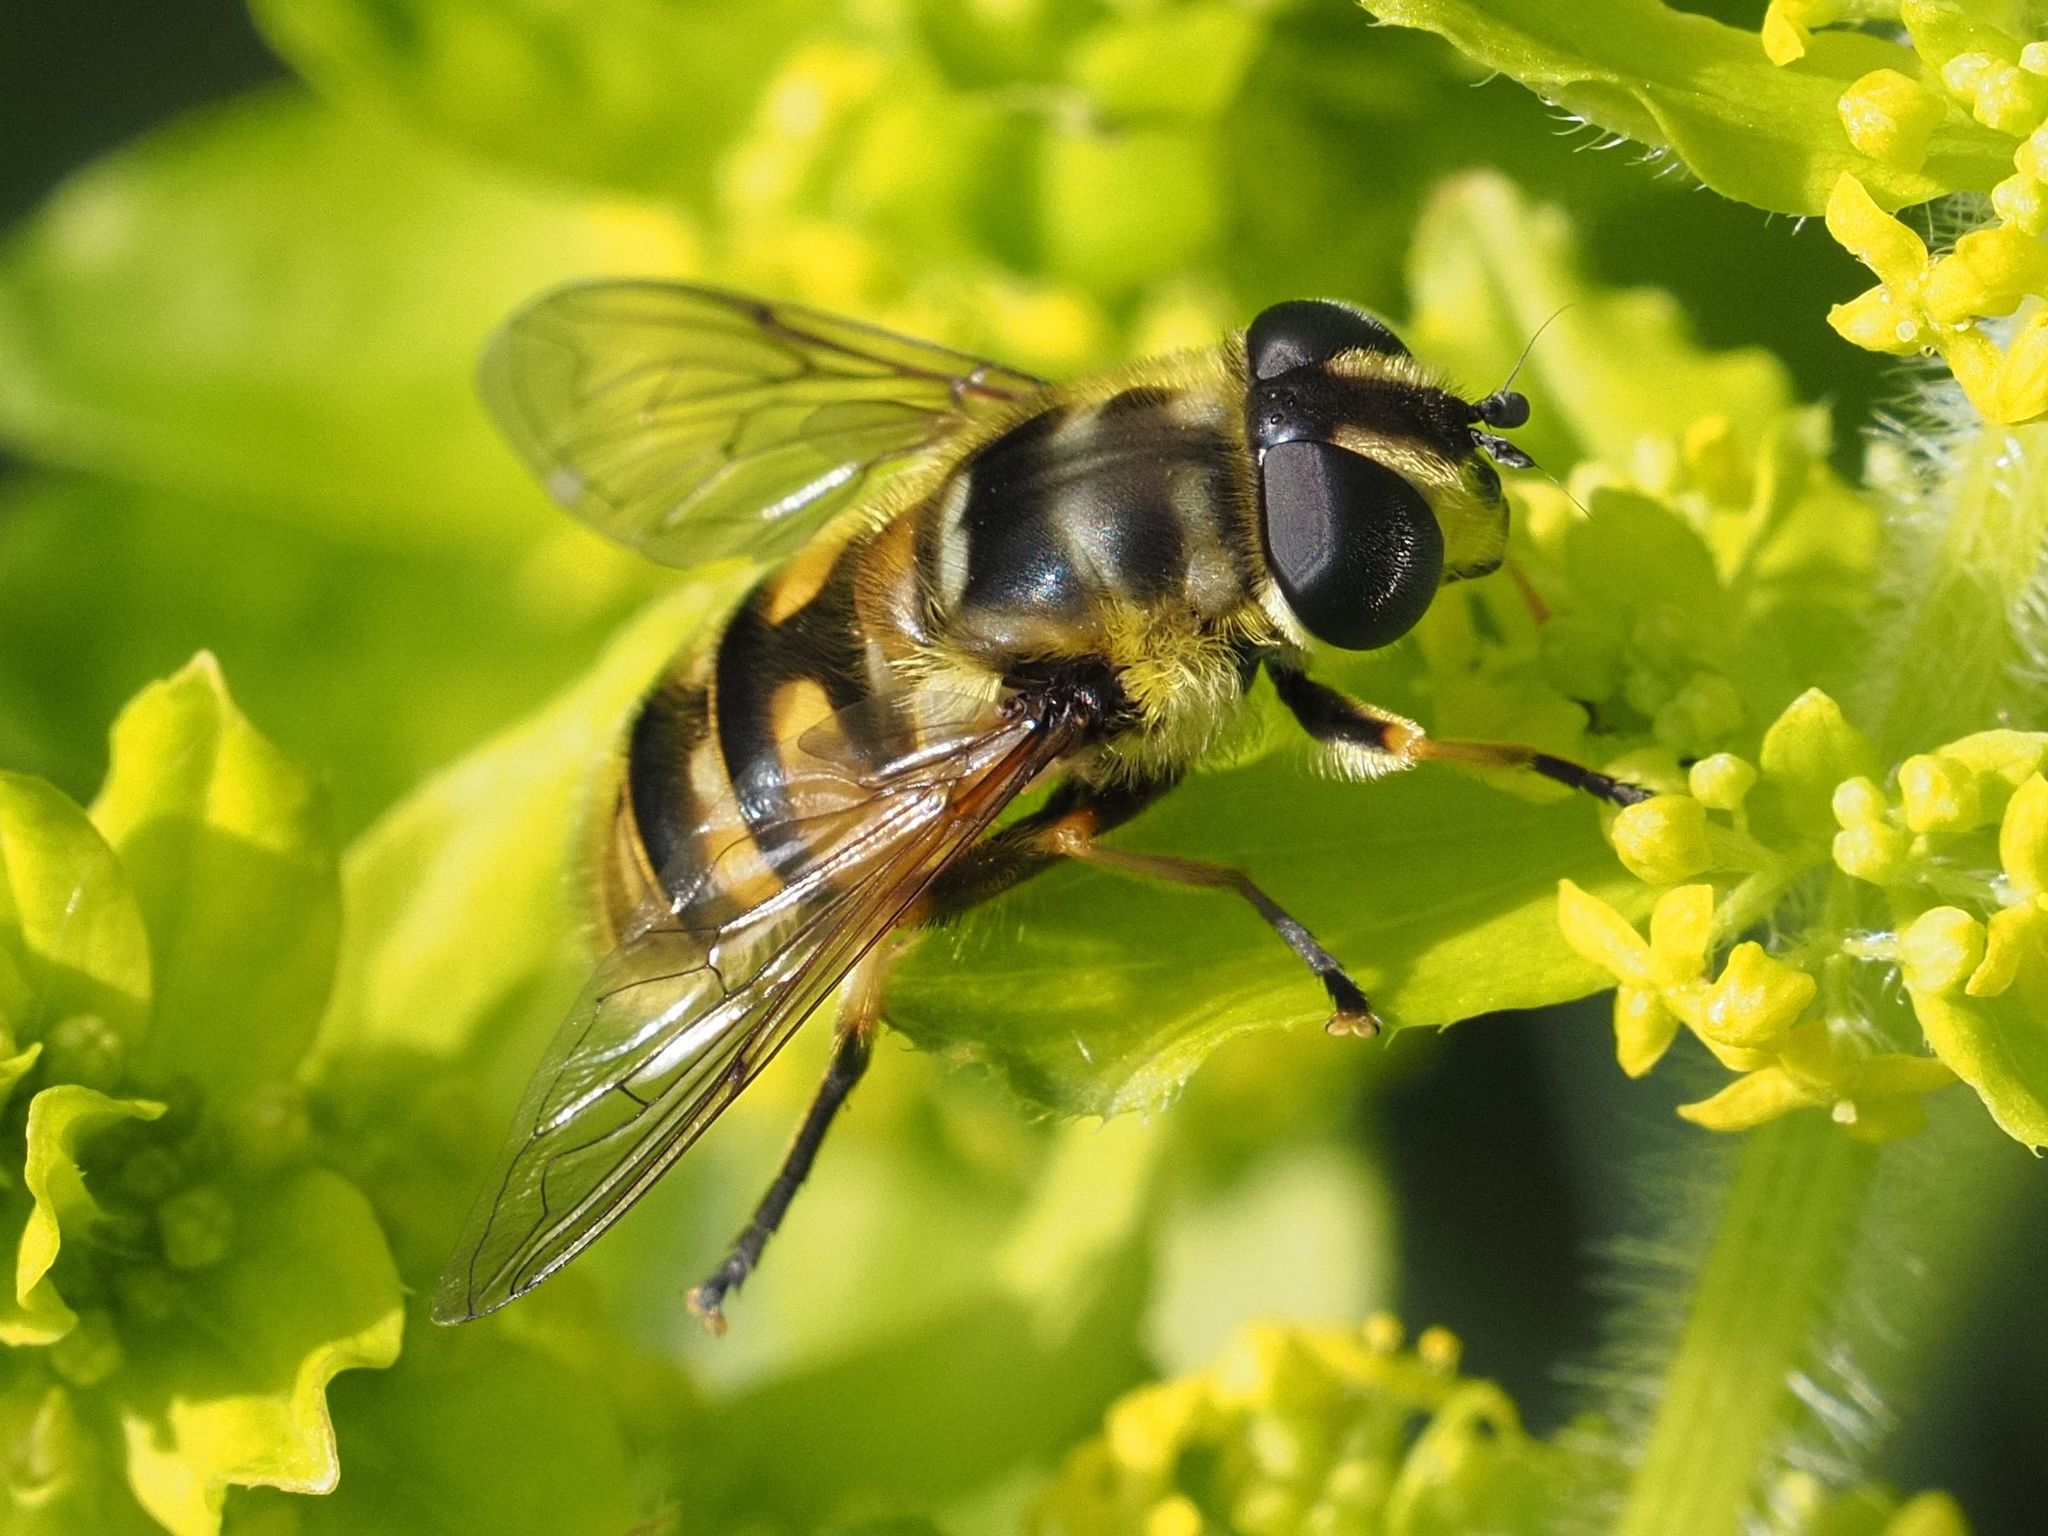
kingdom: Animalia
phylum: Arthropoda
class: Insecta
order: Diptera
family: Syrphidae
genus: Myathropa
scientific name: Myathropa florea
